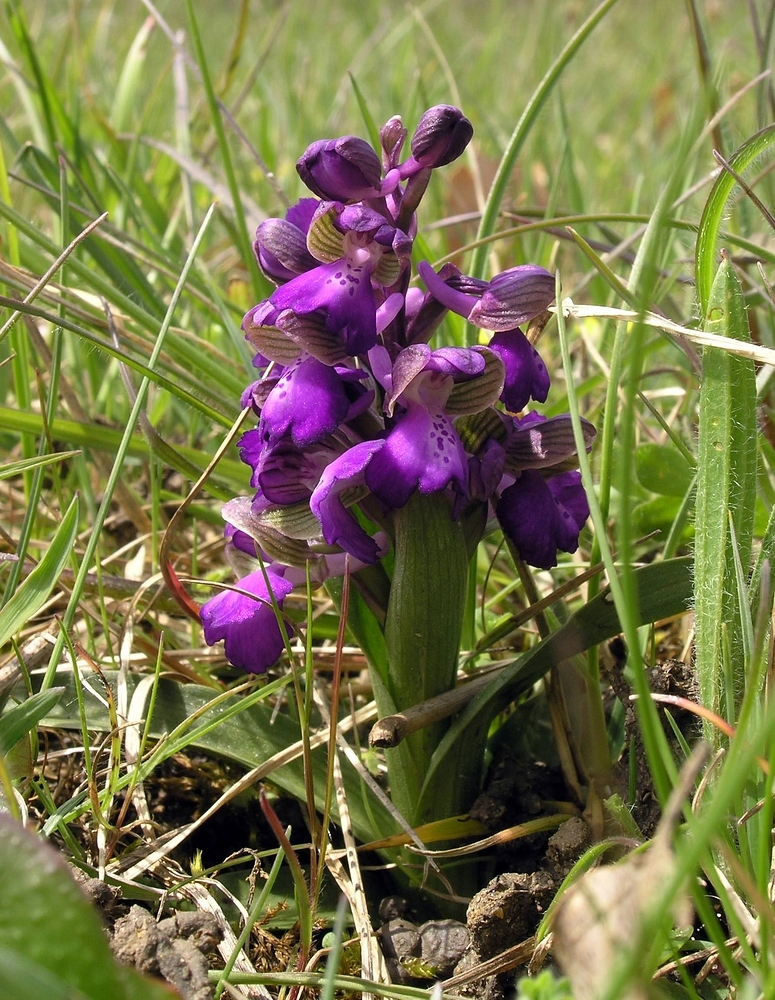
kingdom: Plantae
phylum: Tracheophyta
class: Liliopsida
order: Asparagales
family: Orchidaceae
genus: Anacamptis
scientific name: Anacamptis morio
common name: Green-winged orchid
